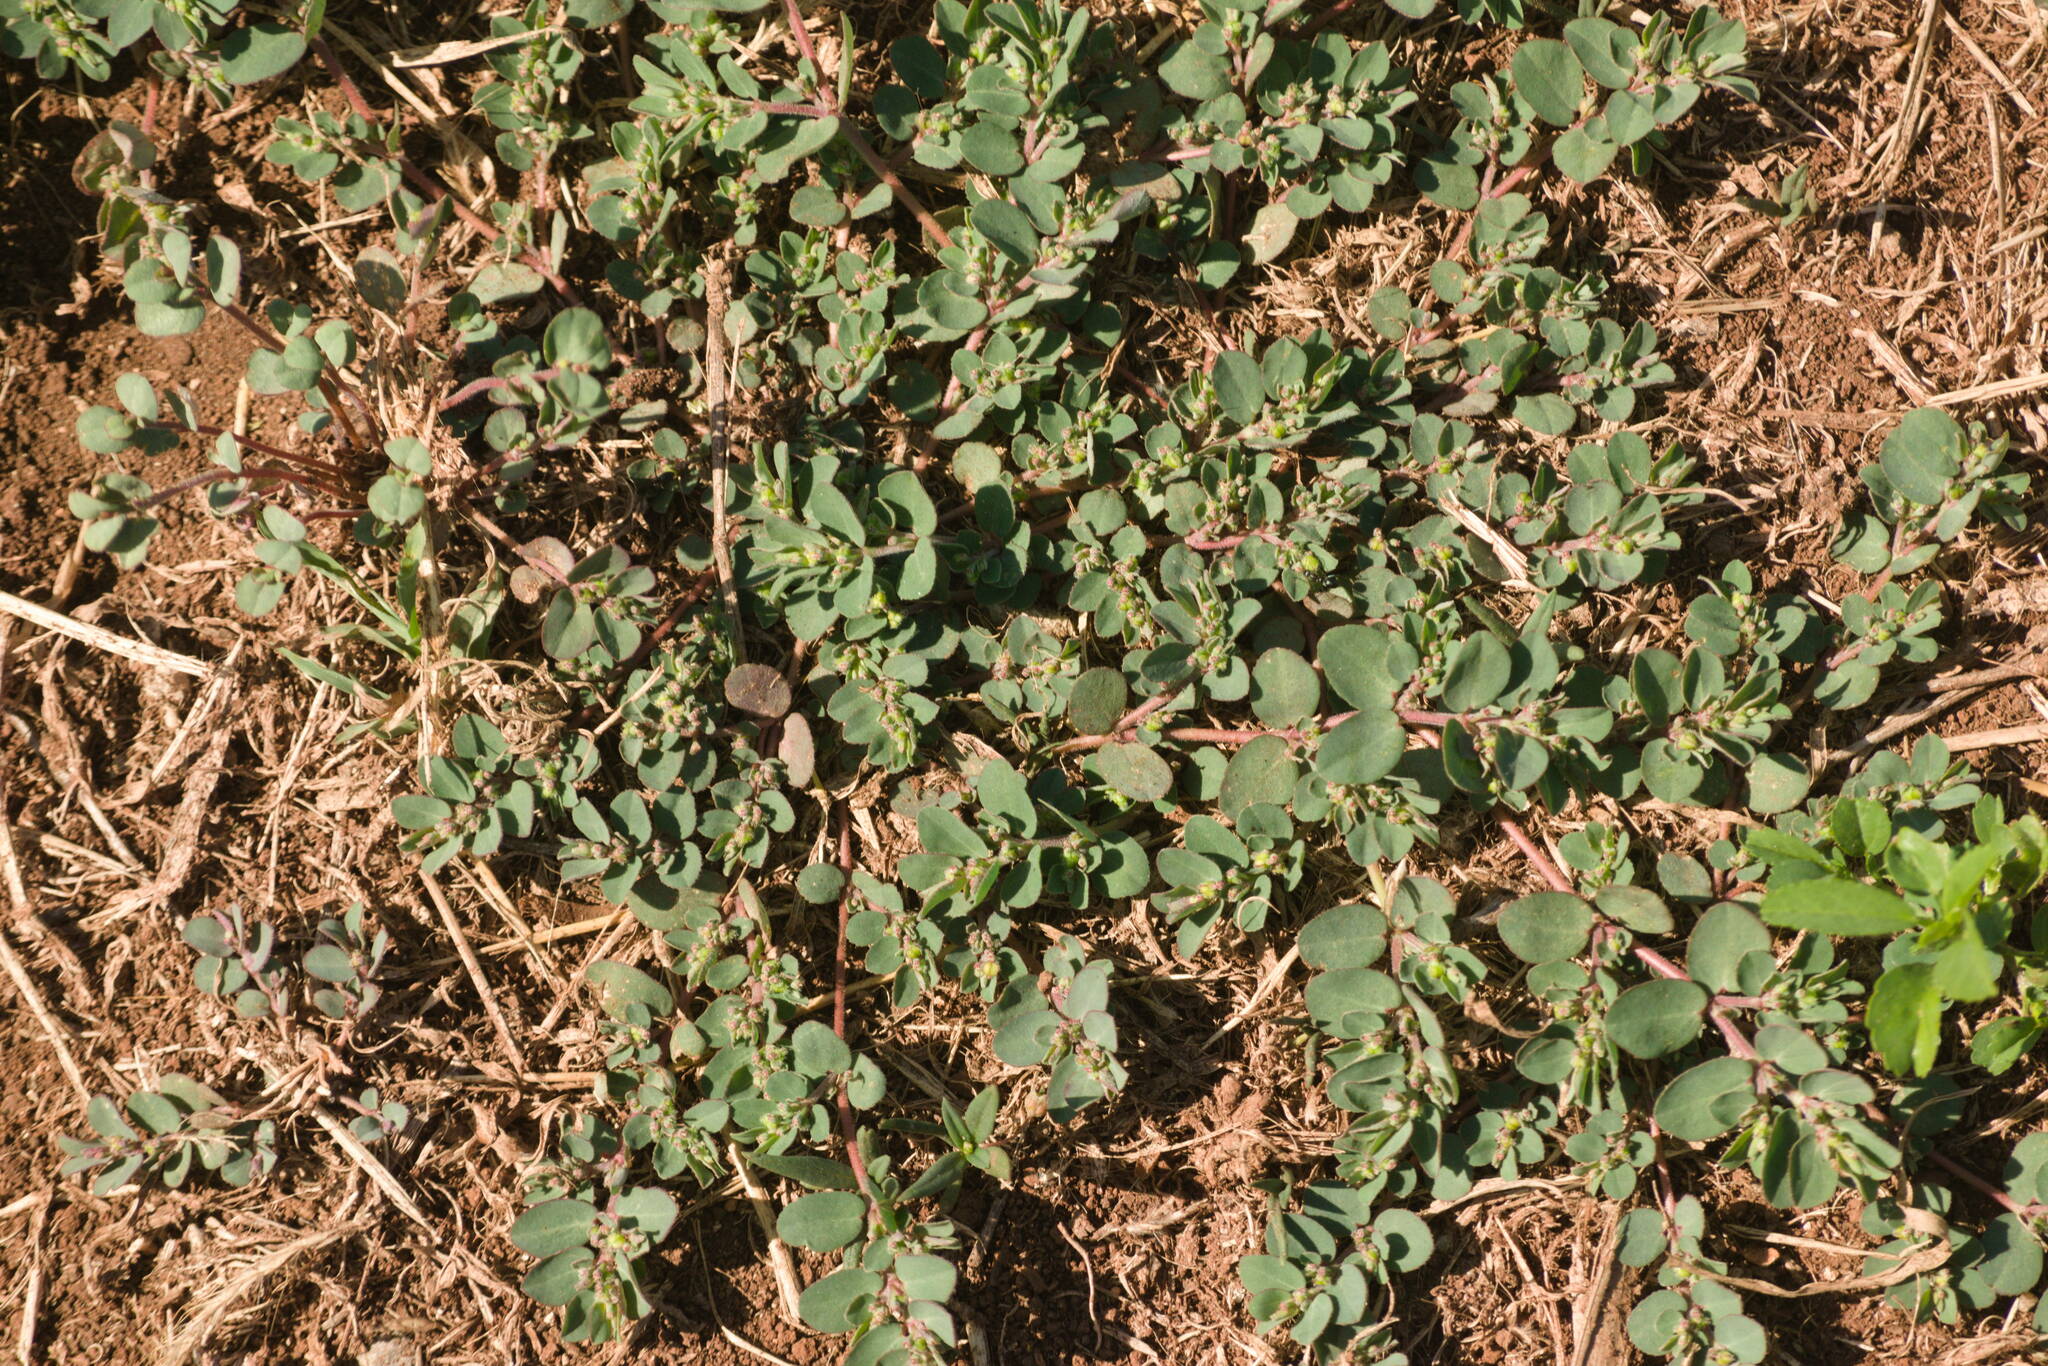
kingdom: Plantae
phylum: Tracheophyta
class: Magnoliopsida
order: Malpighiales
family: Euphorbiaceae
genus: Euphorbia
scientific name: Euphorbia prostrata
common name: Prostrate sandmat
